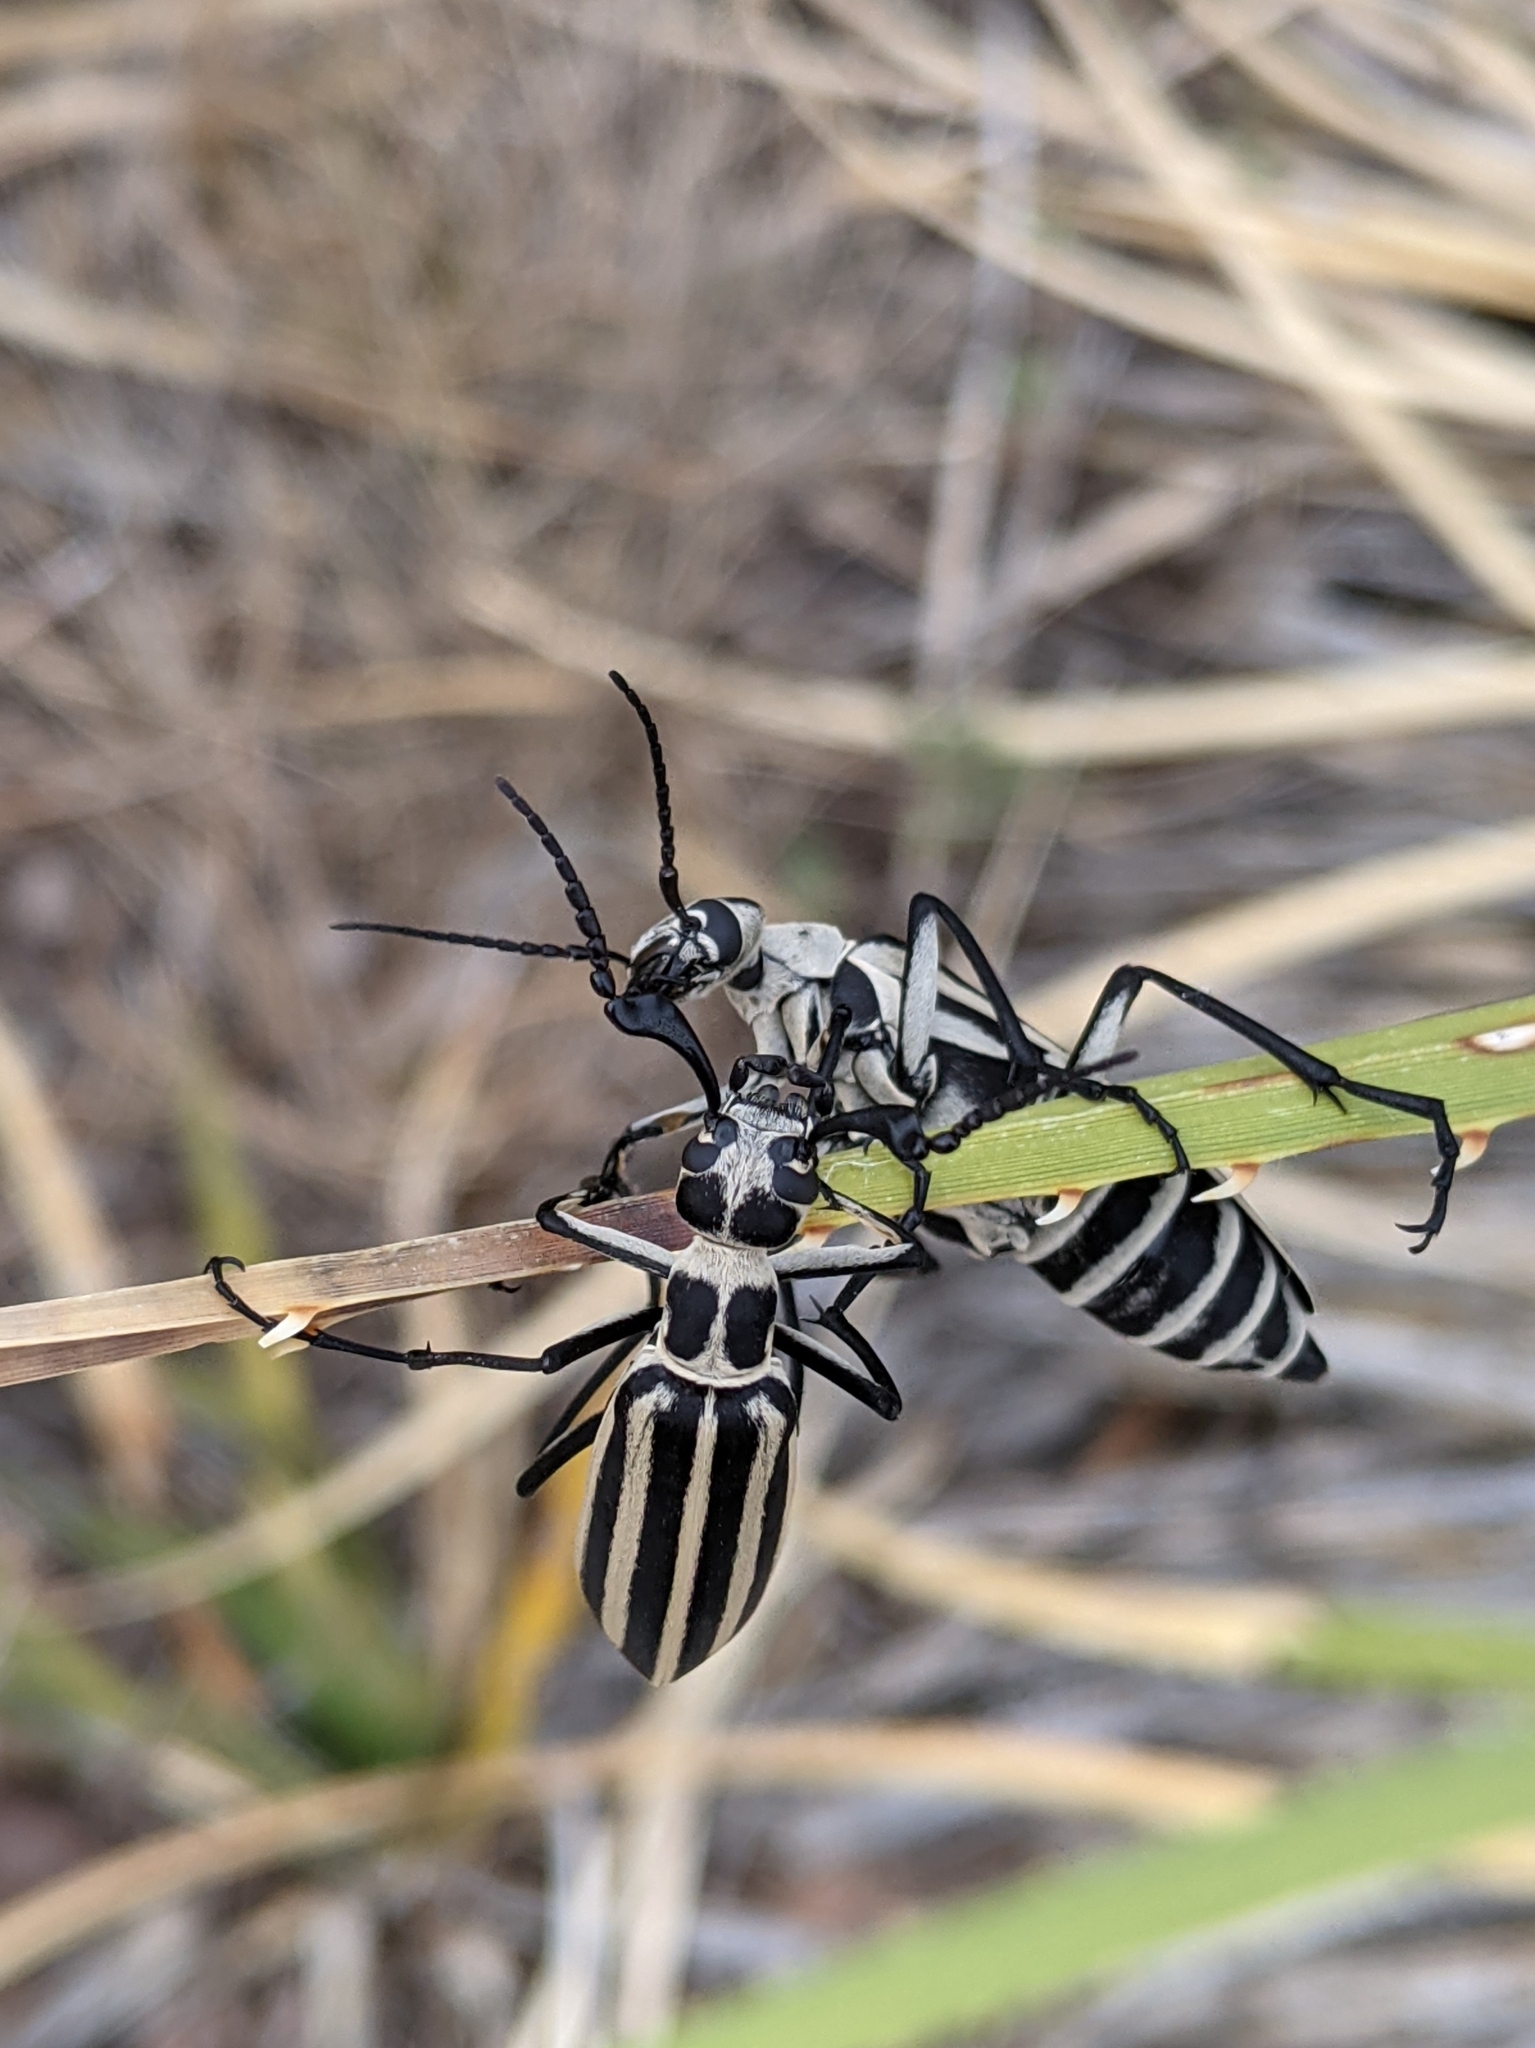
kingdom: Animalia
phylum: Arthropoda
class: Insecta
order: Coleoptera
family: Meloidae
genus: Epicauta
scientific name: Epicauta atrivittata
